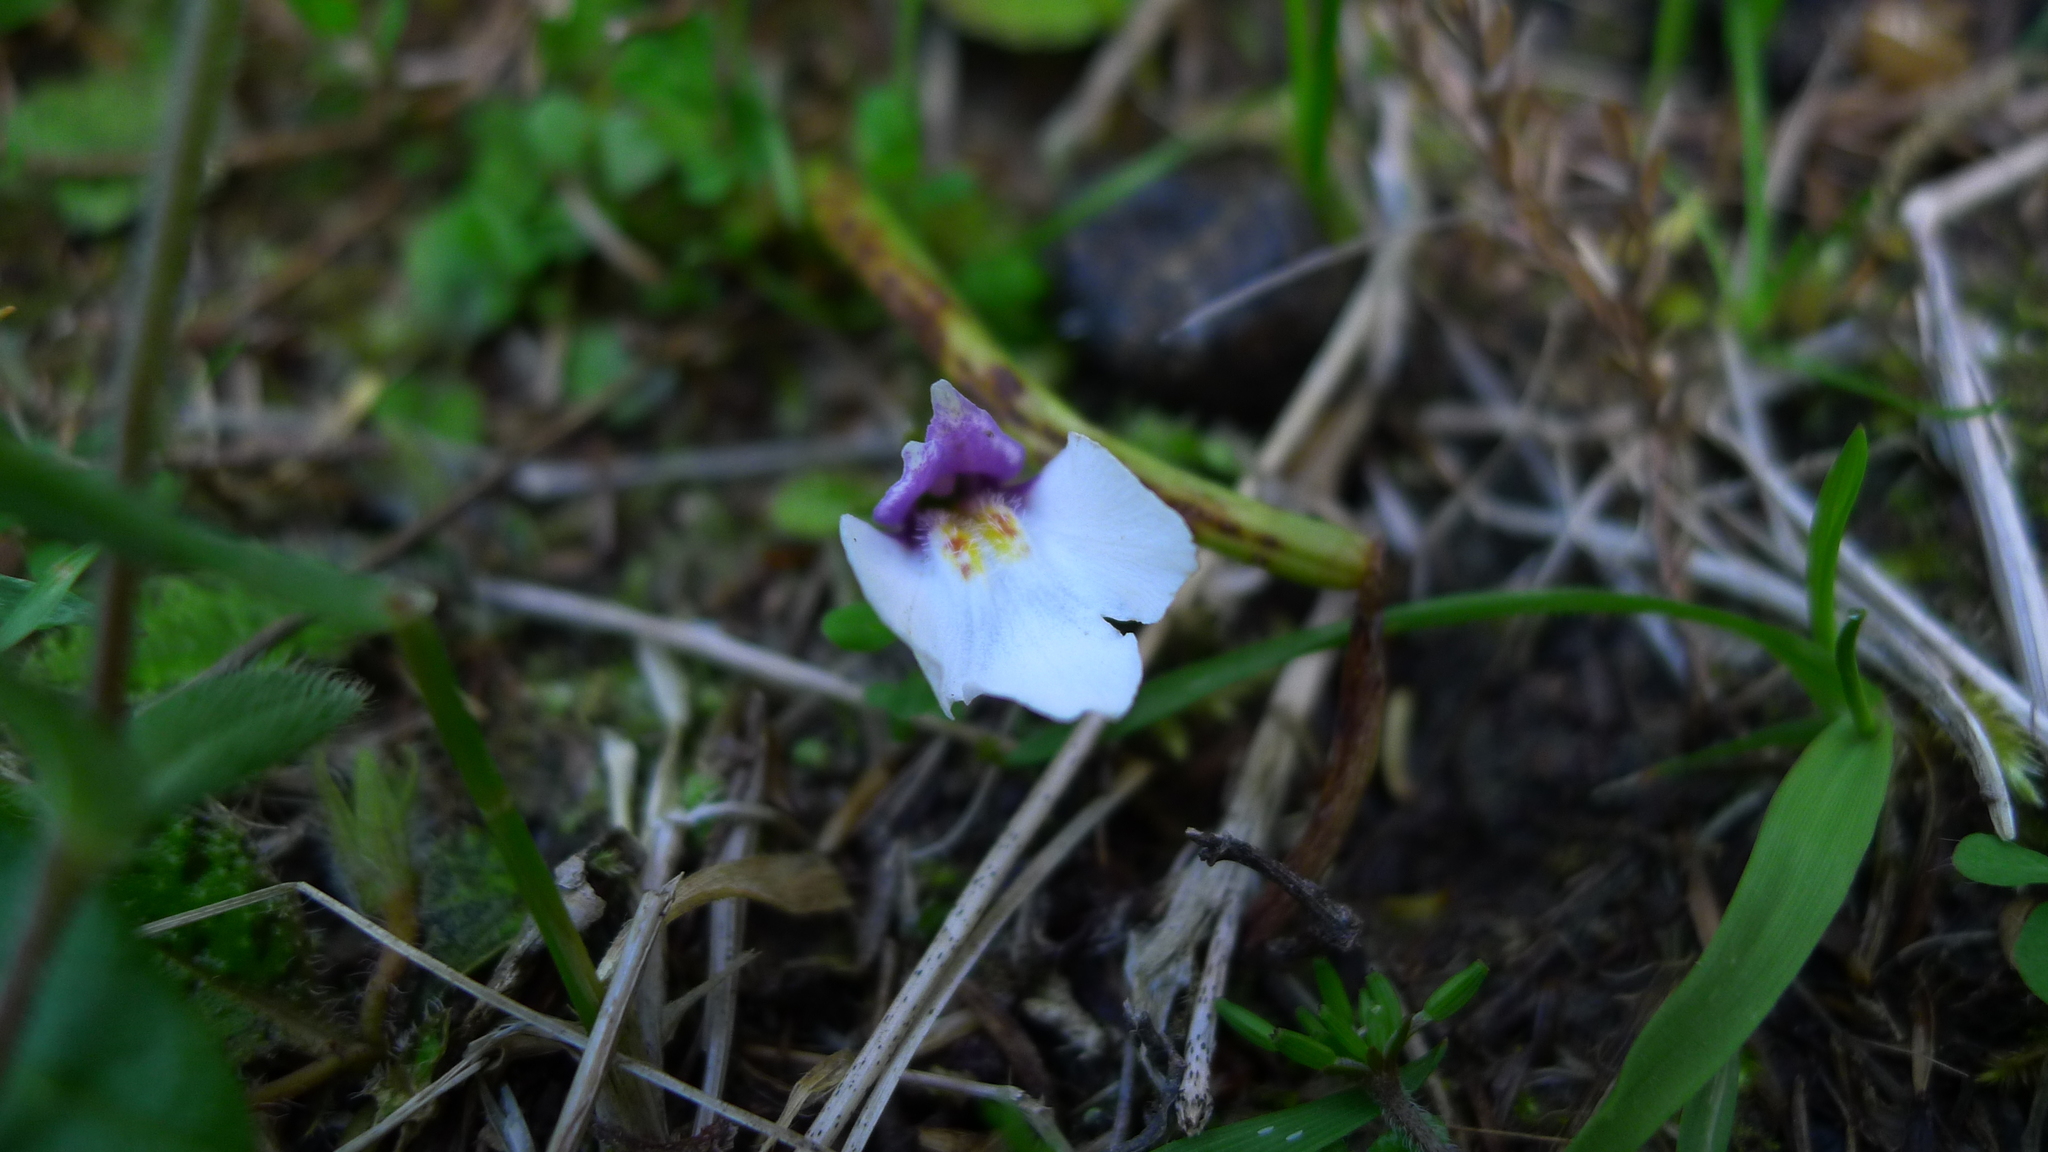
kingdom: Plantae
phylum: Tracheophyta
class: Magnoliopsida
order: Lamiales
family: Mazaceae
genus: Mazus
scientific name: Mazus radicans
